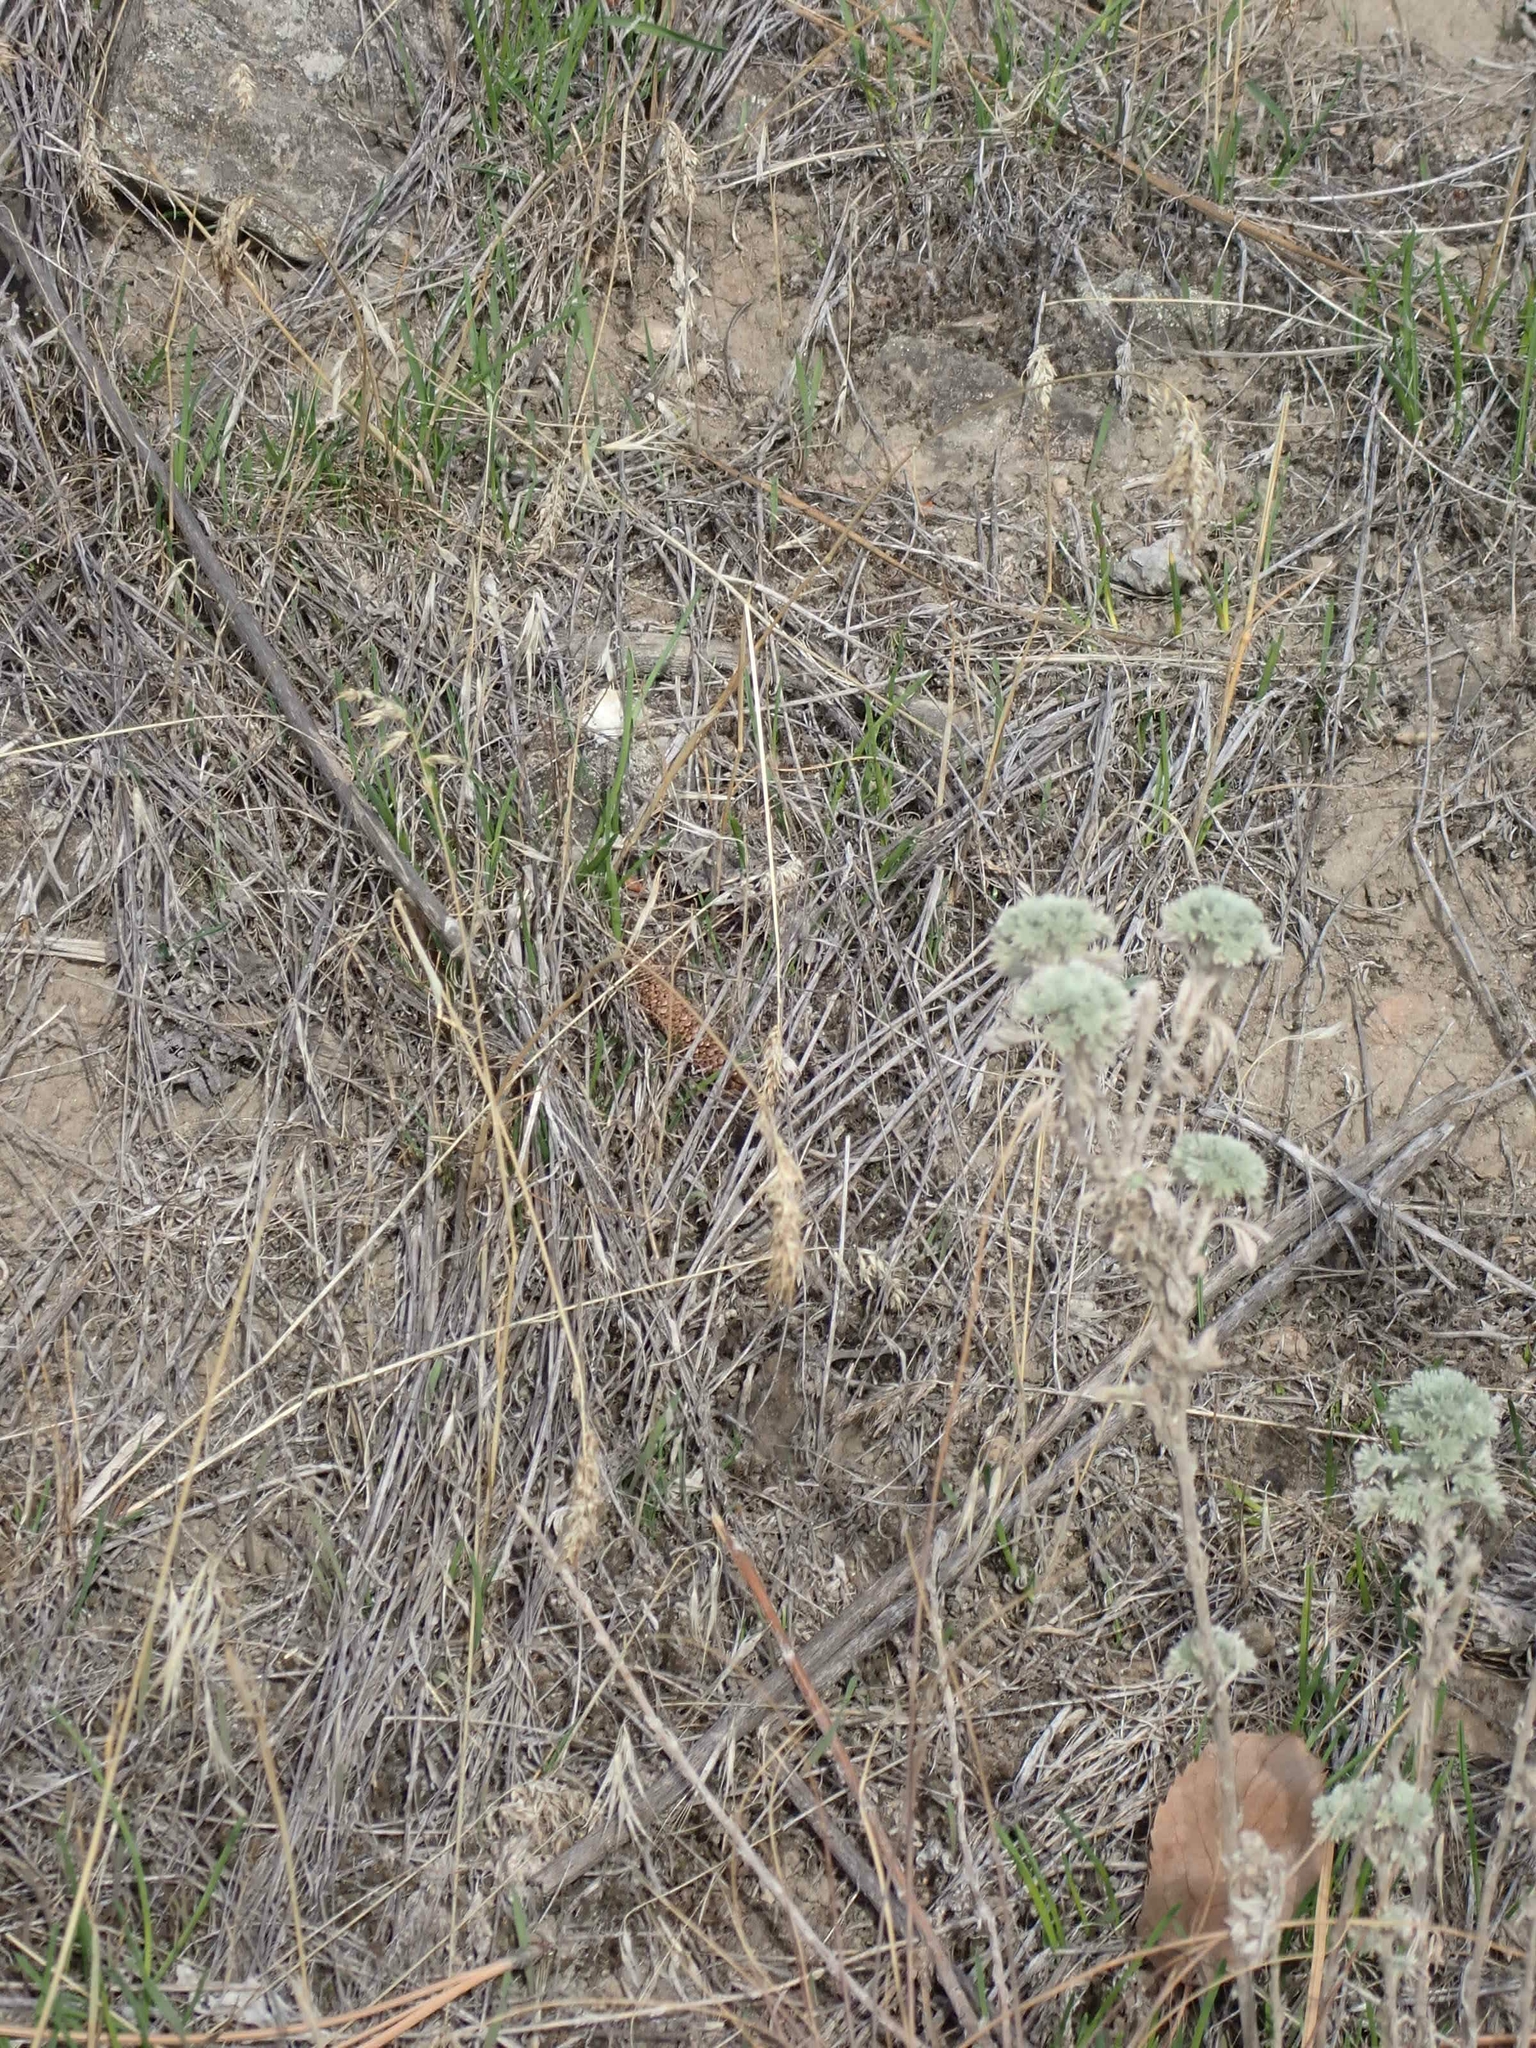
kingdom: Plantae
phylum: Tracheophyta
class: Magnoliopsida
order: Asterales
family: Asteraceae
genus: Artemisia
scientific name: Artemisia frigida
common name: Prairie sagewort
